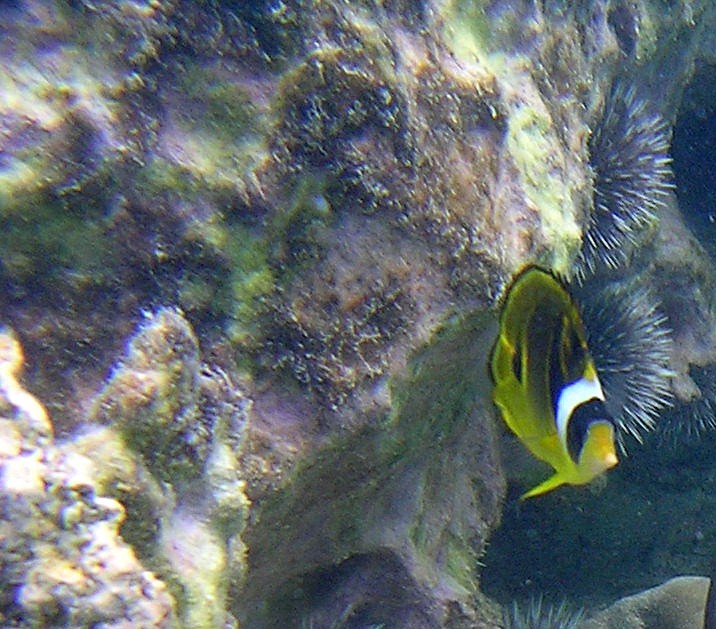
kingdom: Animalia
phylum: Chordata
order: Perciformes
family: Chaetodontidae
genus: Chaetodon
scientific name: Chaetodon lunula
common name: Raccoon butterflyfish
